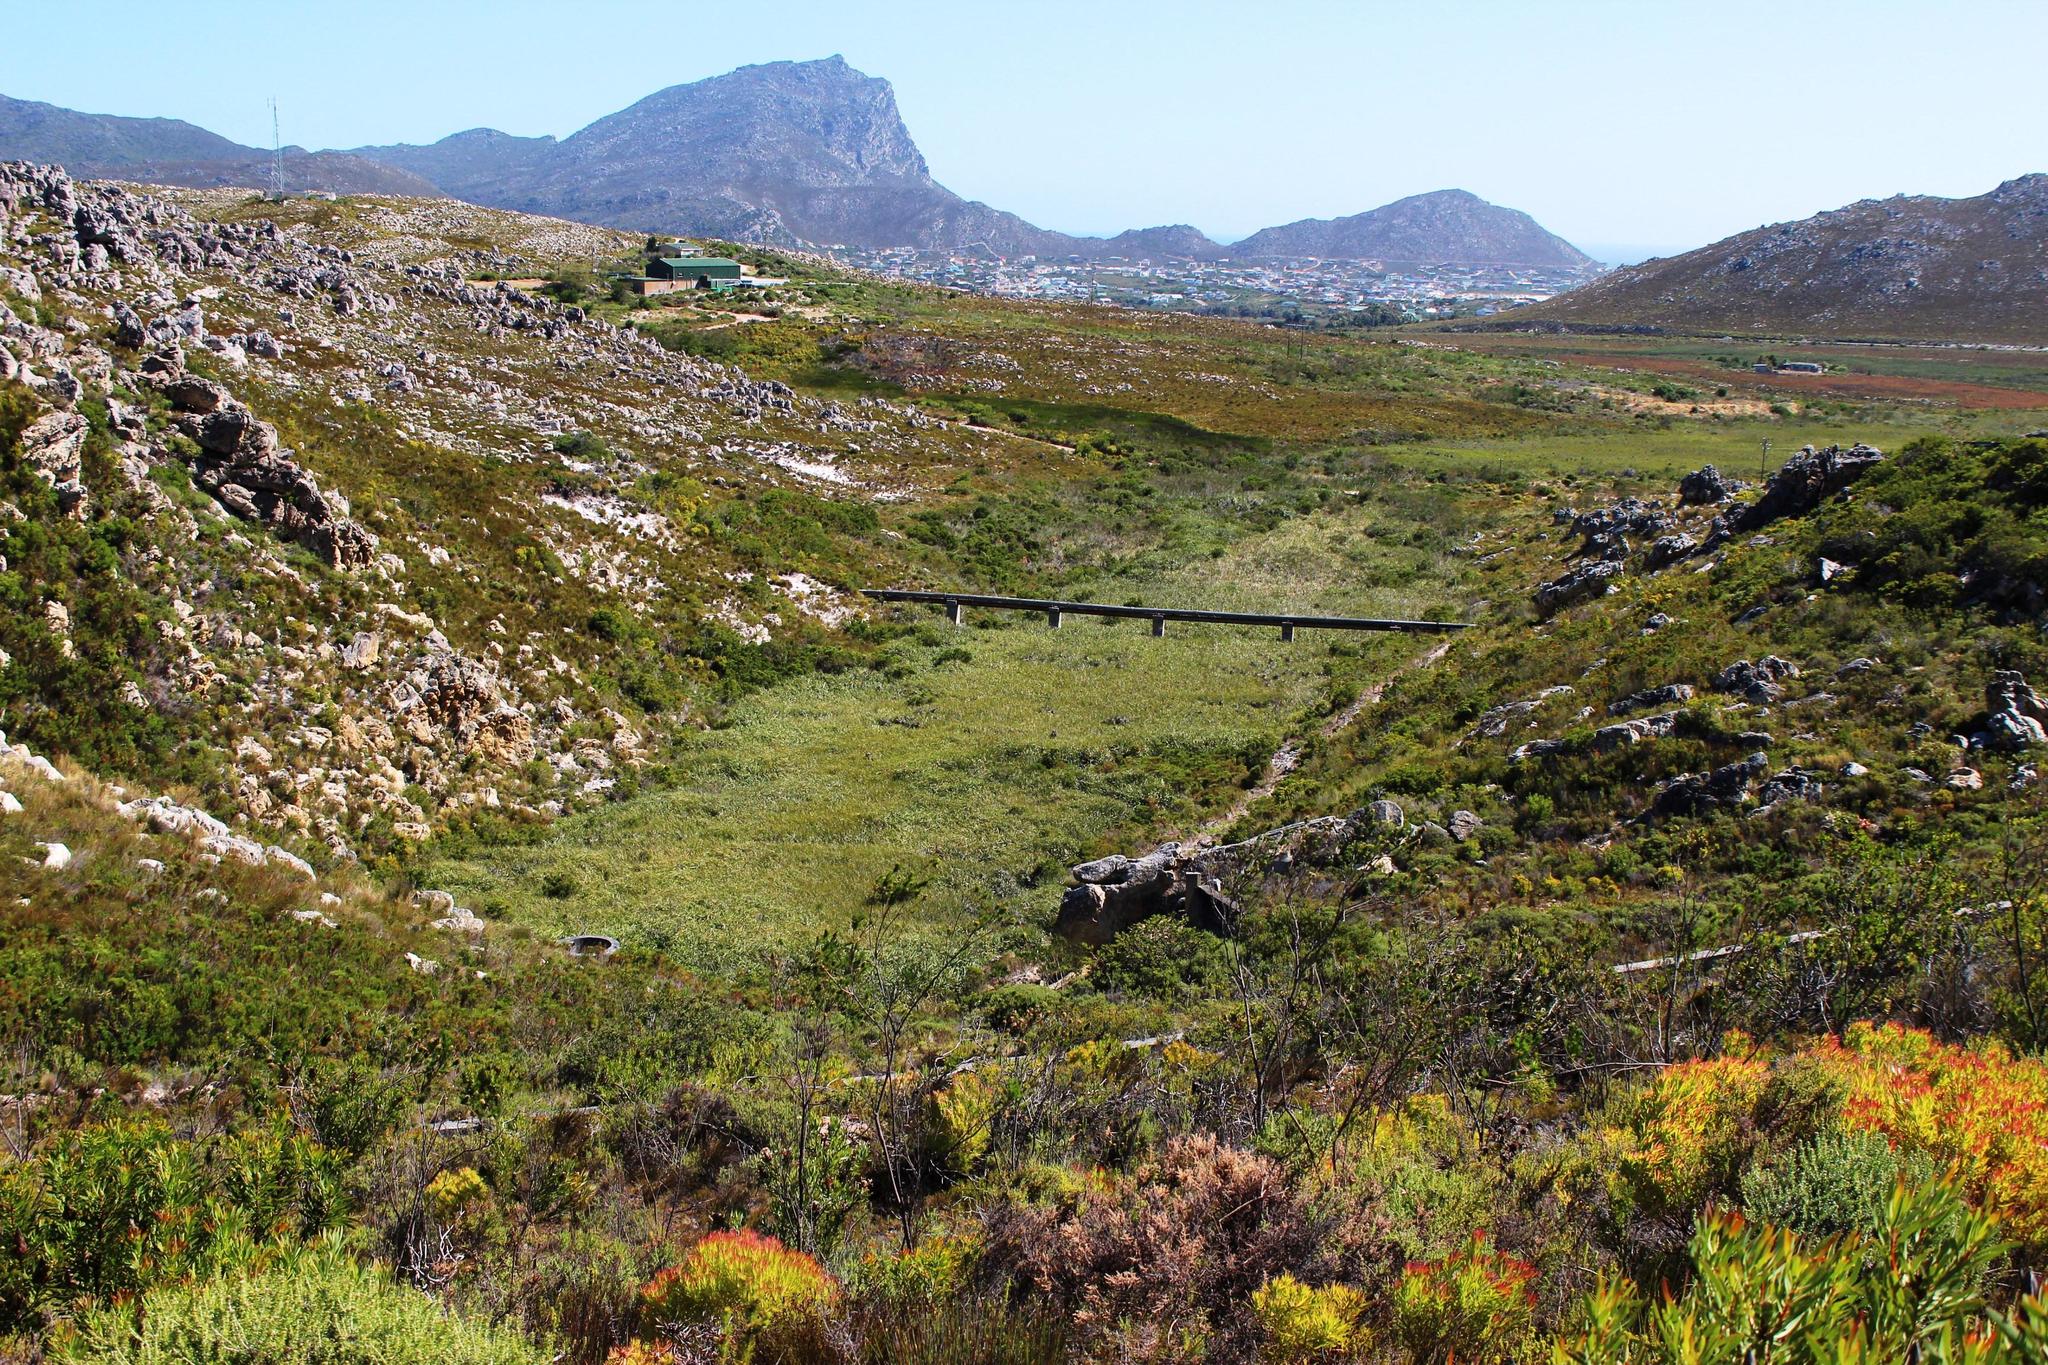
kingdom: Plantae
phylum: Tracheophyta
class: Liliopsida
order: Poales
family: Thurniaceae
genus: Prionium
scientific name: Prionium serratum
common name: Palmiet
